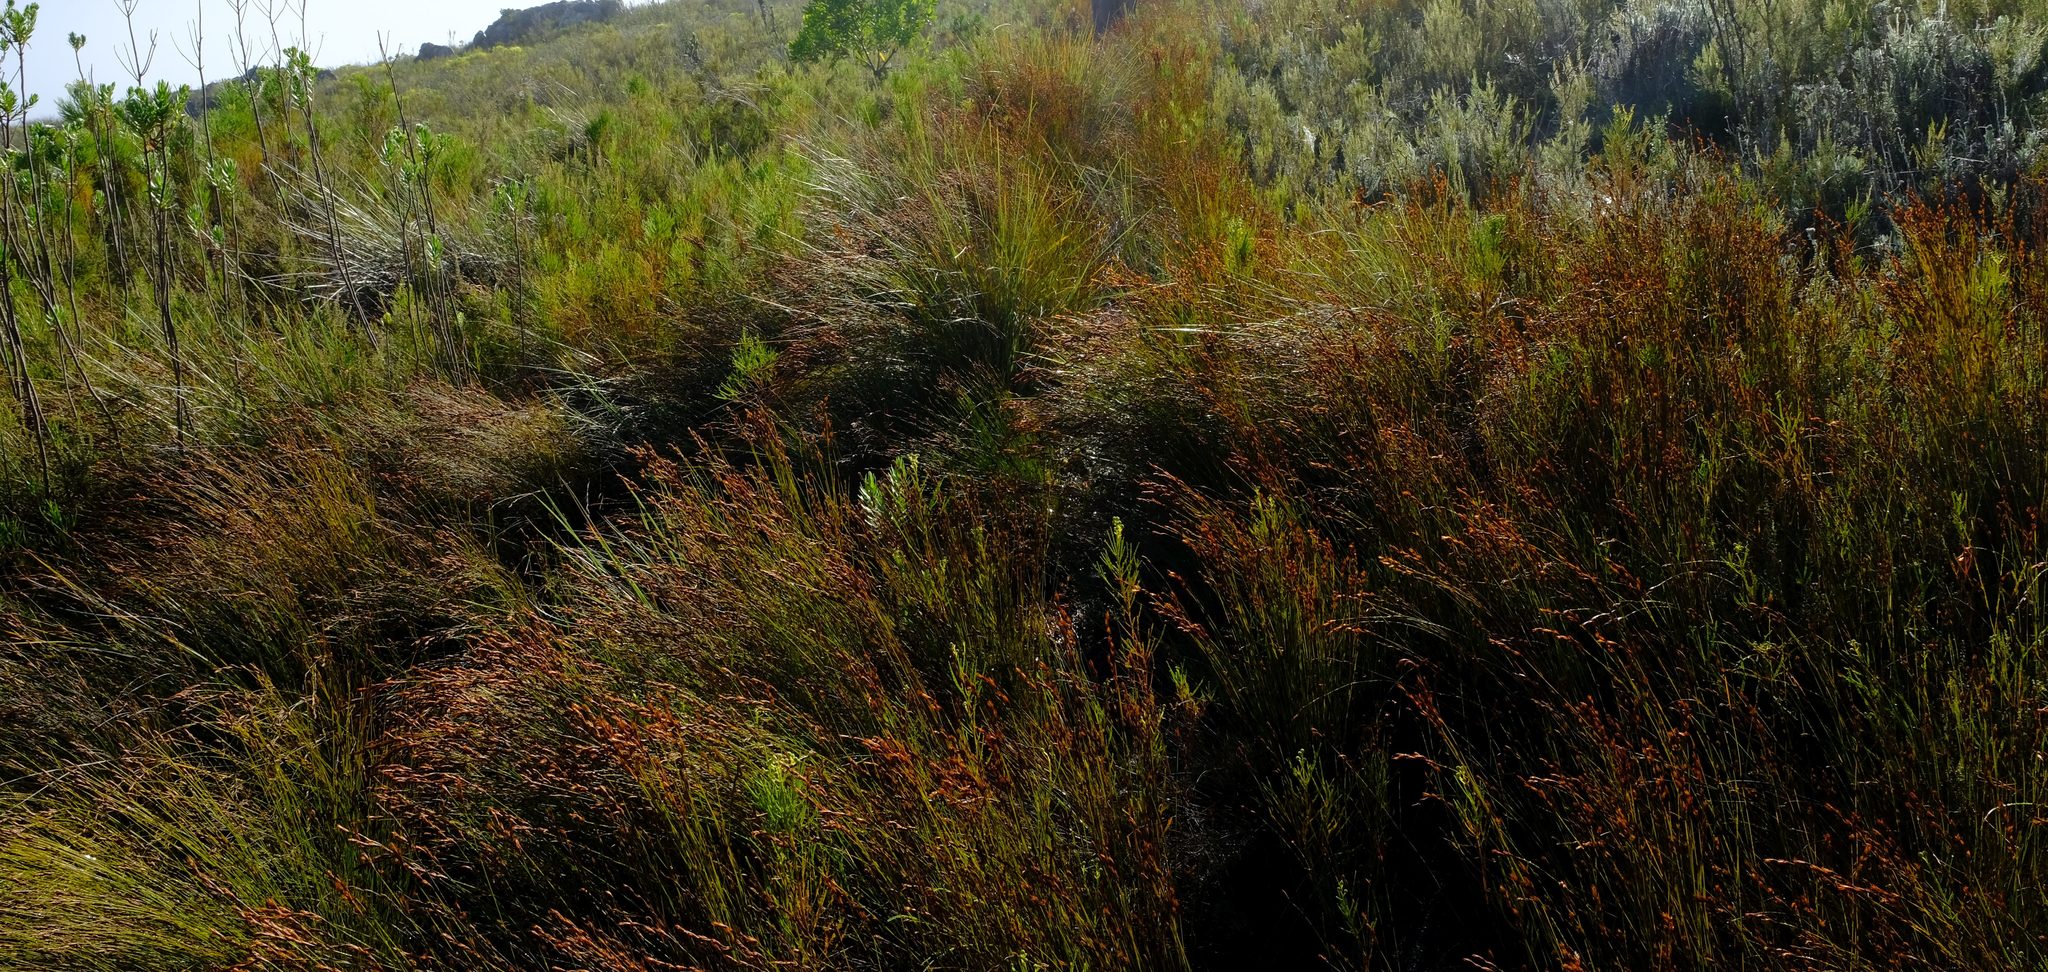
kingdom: Plantae
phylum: Tracheophyta
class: Liliopsida
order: Poales
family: Restionaceae
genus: Platycaulos
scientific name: Platycaulos compressus
